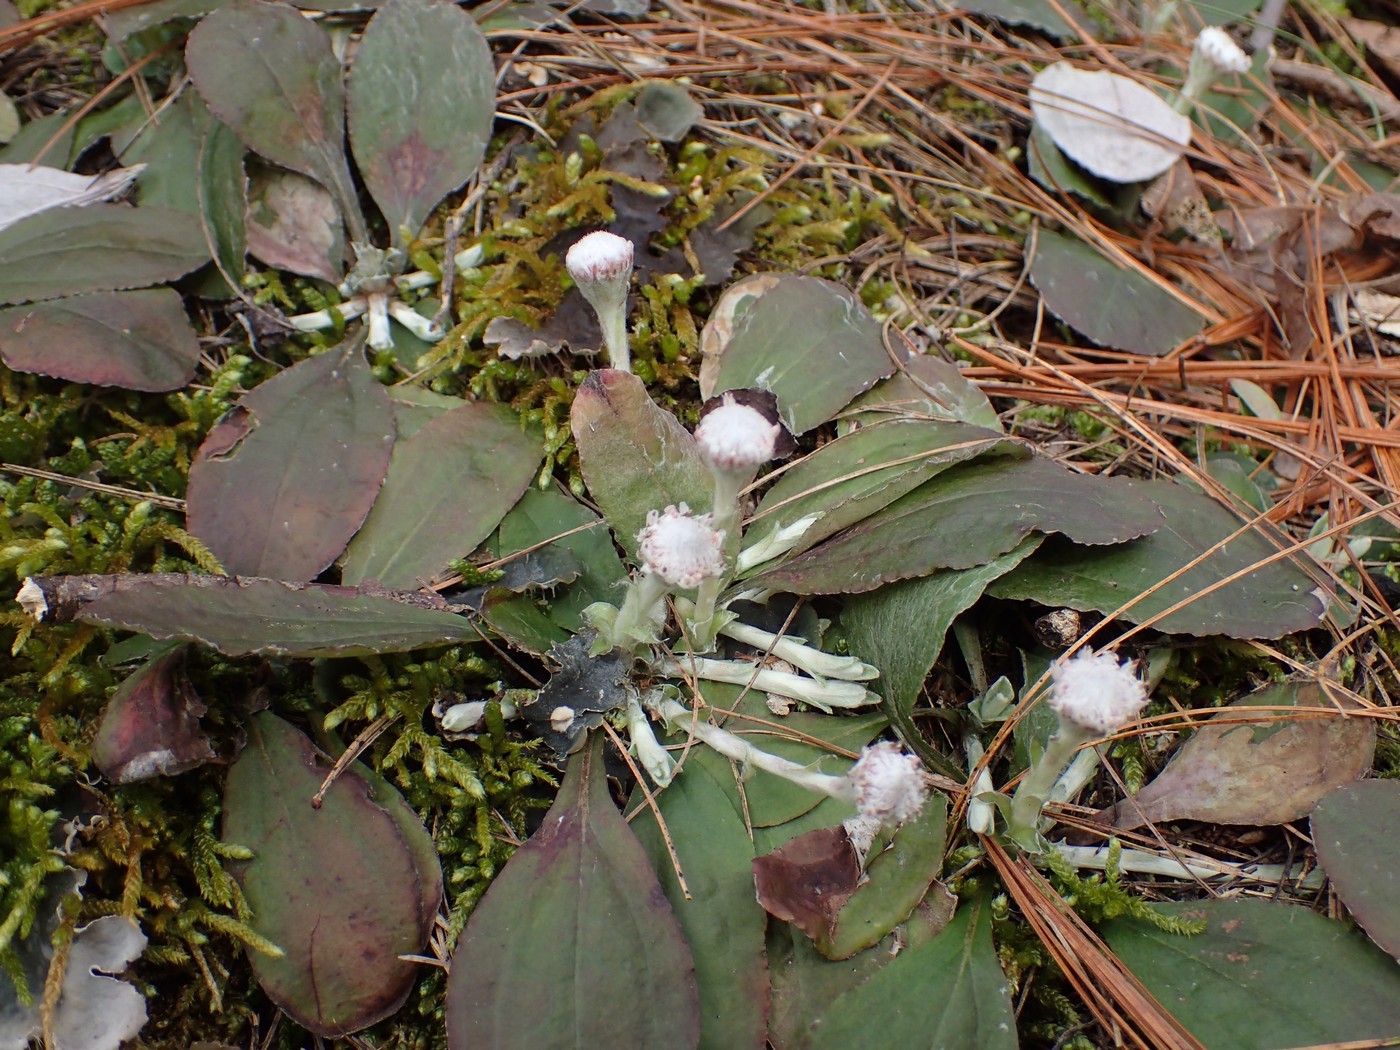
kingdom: Plantae
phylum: Tracheophyta
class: Magnoliopsida
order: Asterales
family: Asteraceae
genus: Antennaria
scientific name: Antennaria solitaria
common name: Single-head pussytoes
